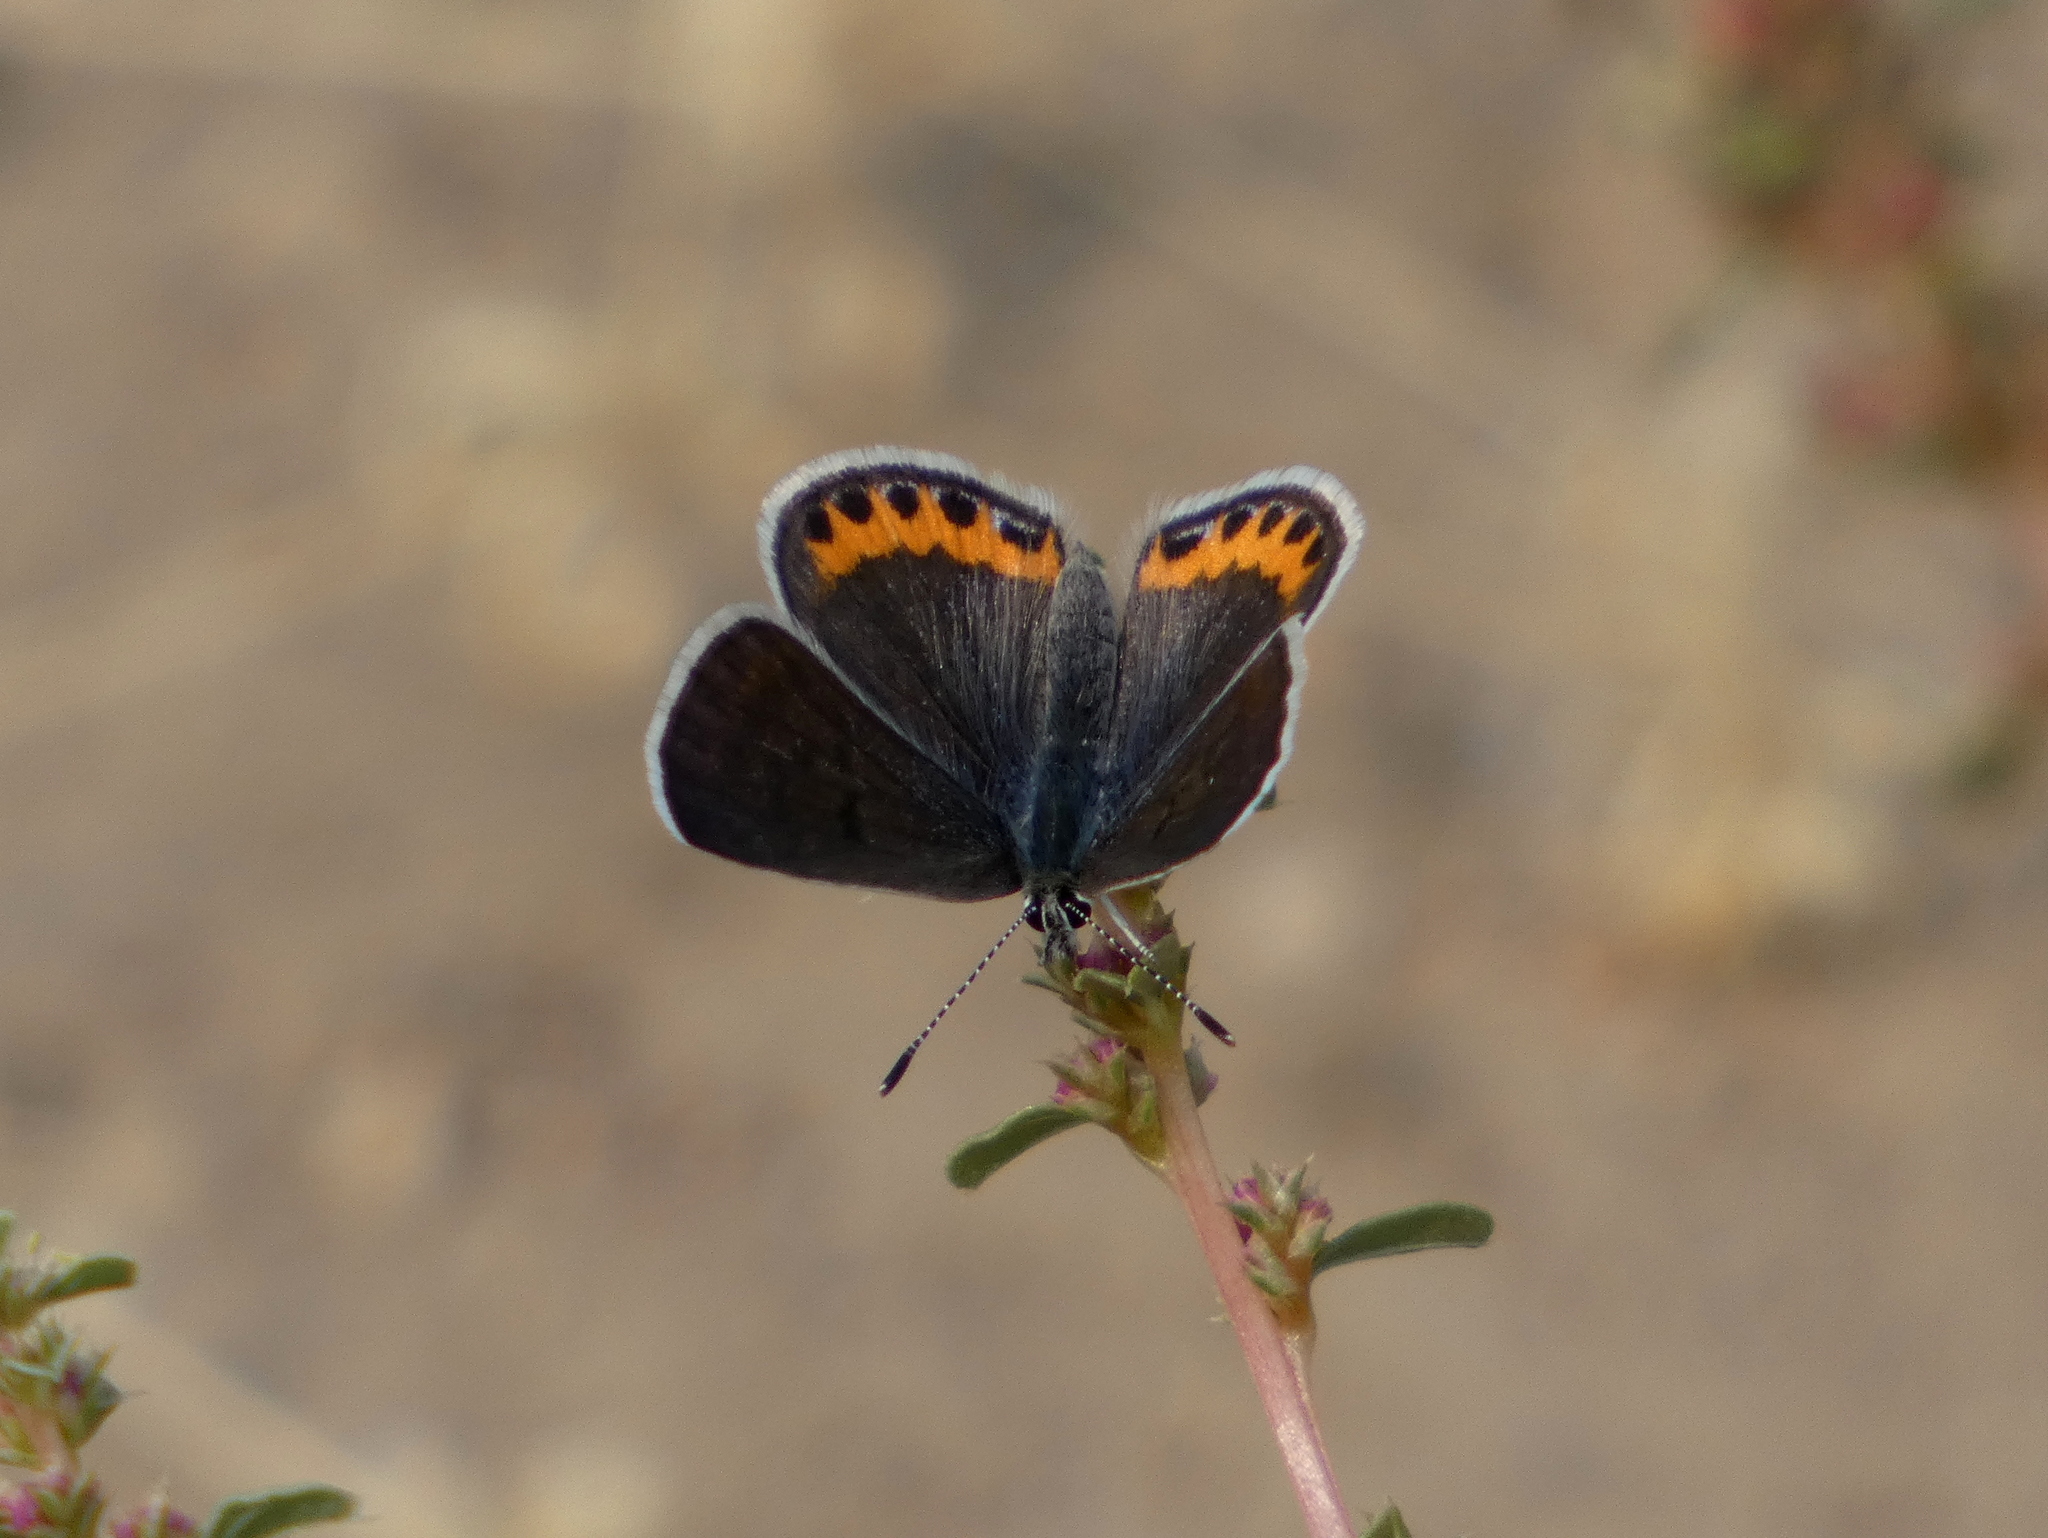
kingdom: Animalia
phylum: Arthropoda
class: Insecta
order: Lepidoptera
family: Lycaenidae
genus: Icaricia
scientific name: Icaricia acmon
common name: Acmon blue
